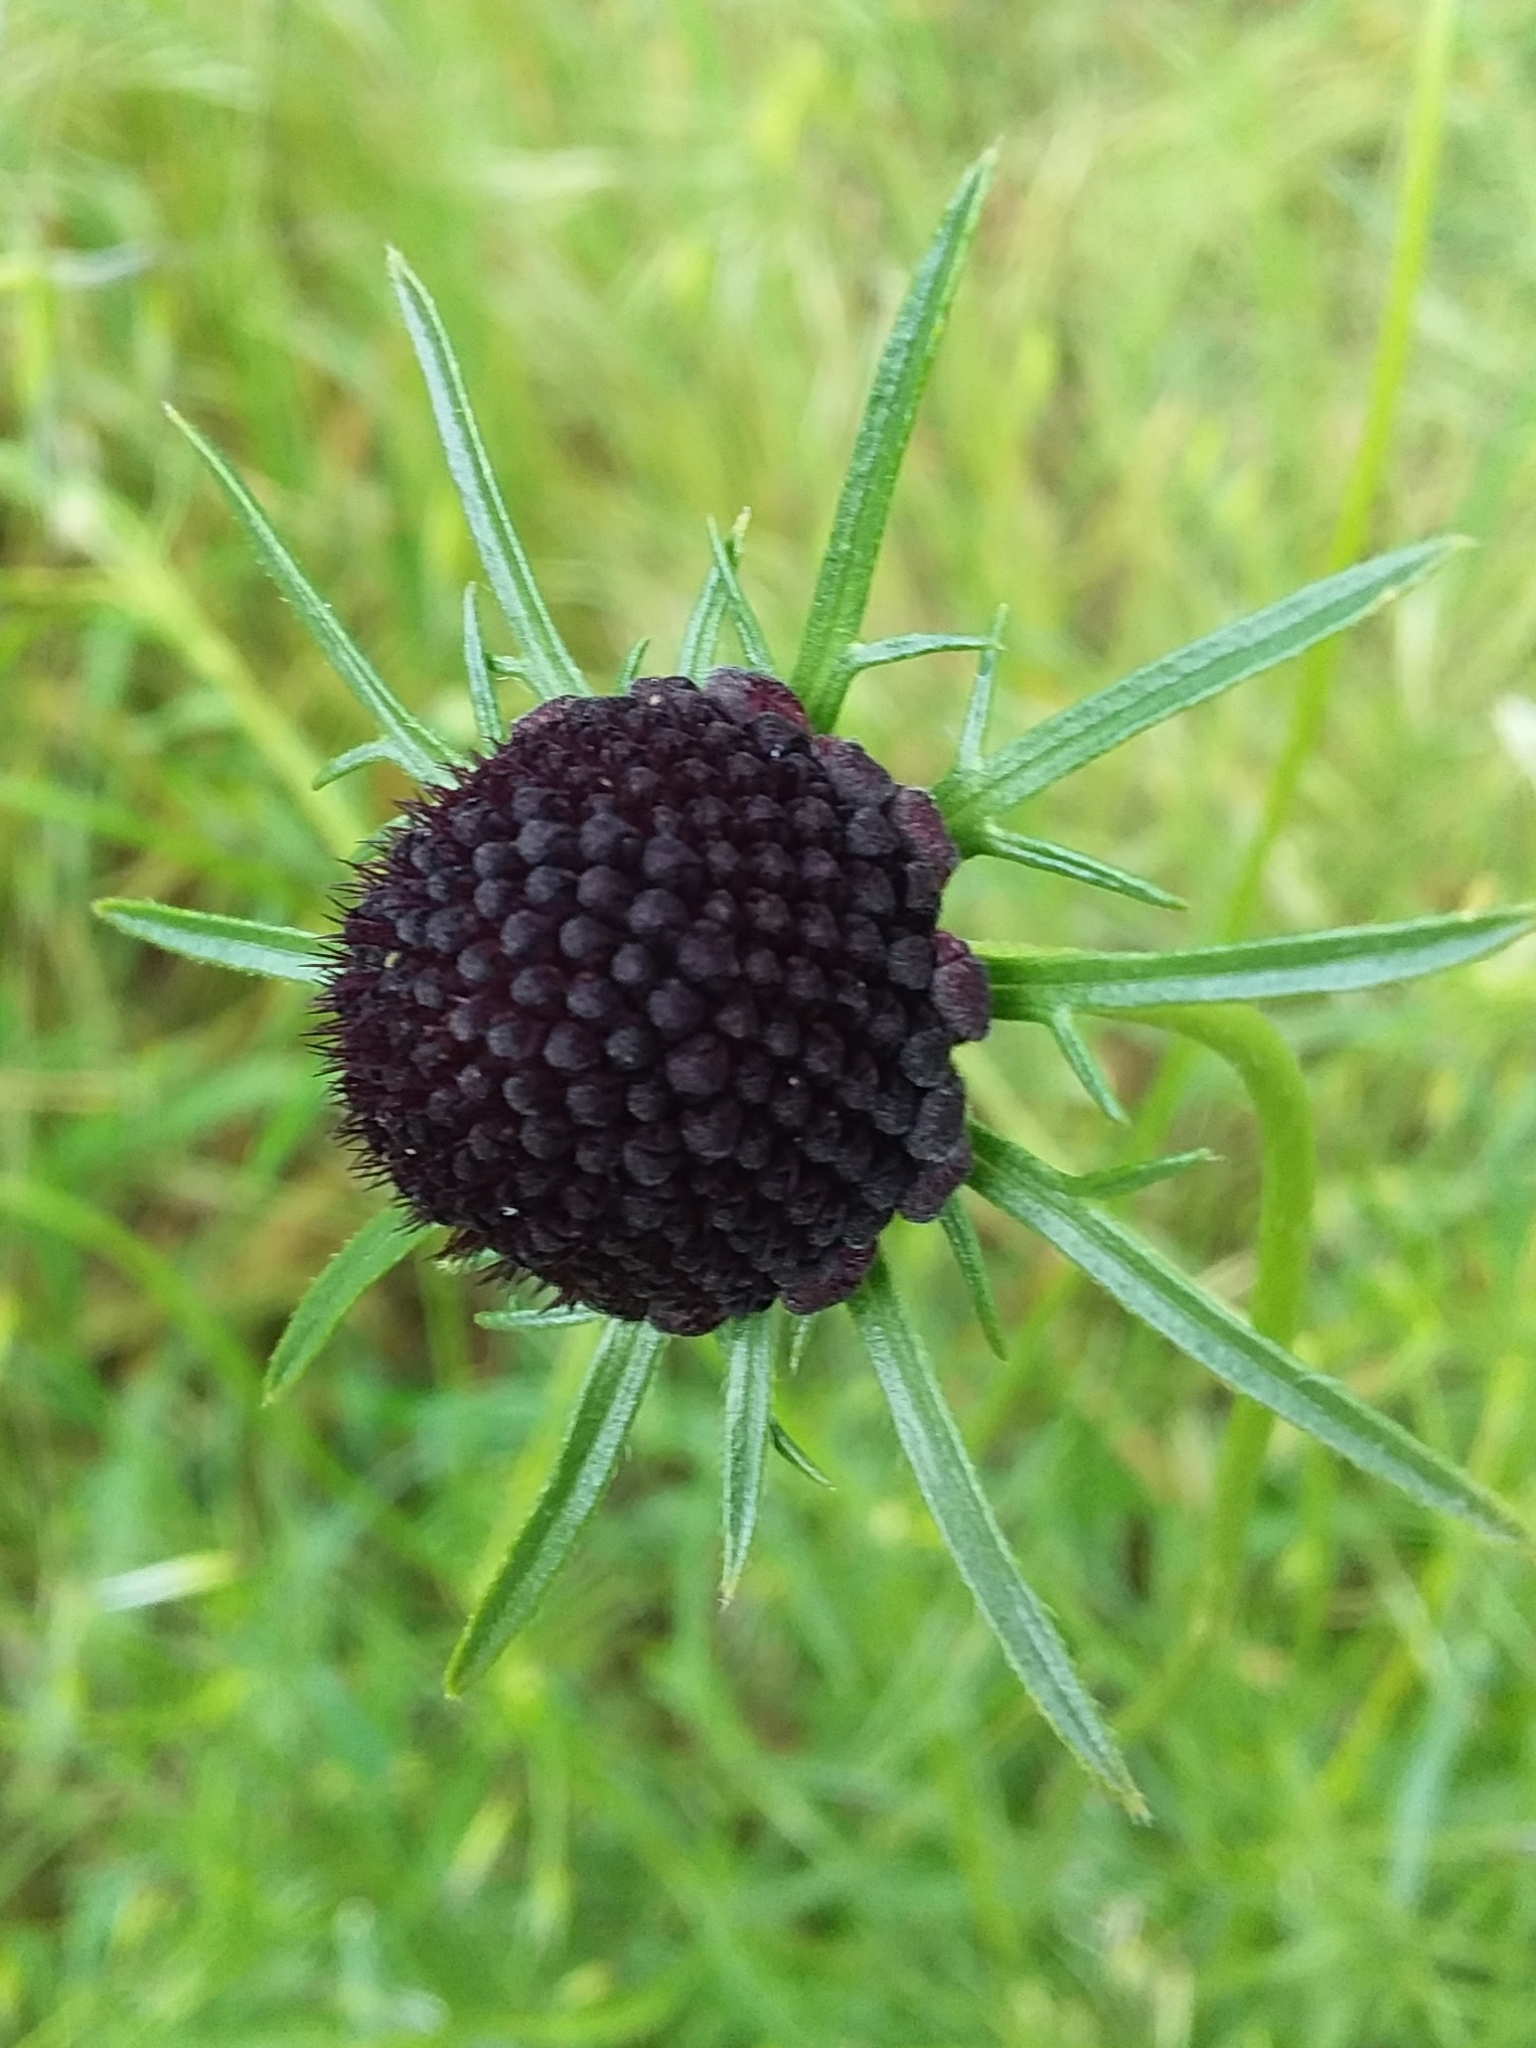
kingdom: Plantae
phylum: Tracheophyta
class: Magnoliopsida
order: Dipsacales
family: Caprifoliaceae
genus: Sixalix
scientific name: Sixalix atropurpurea
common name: Sweet scabious
